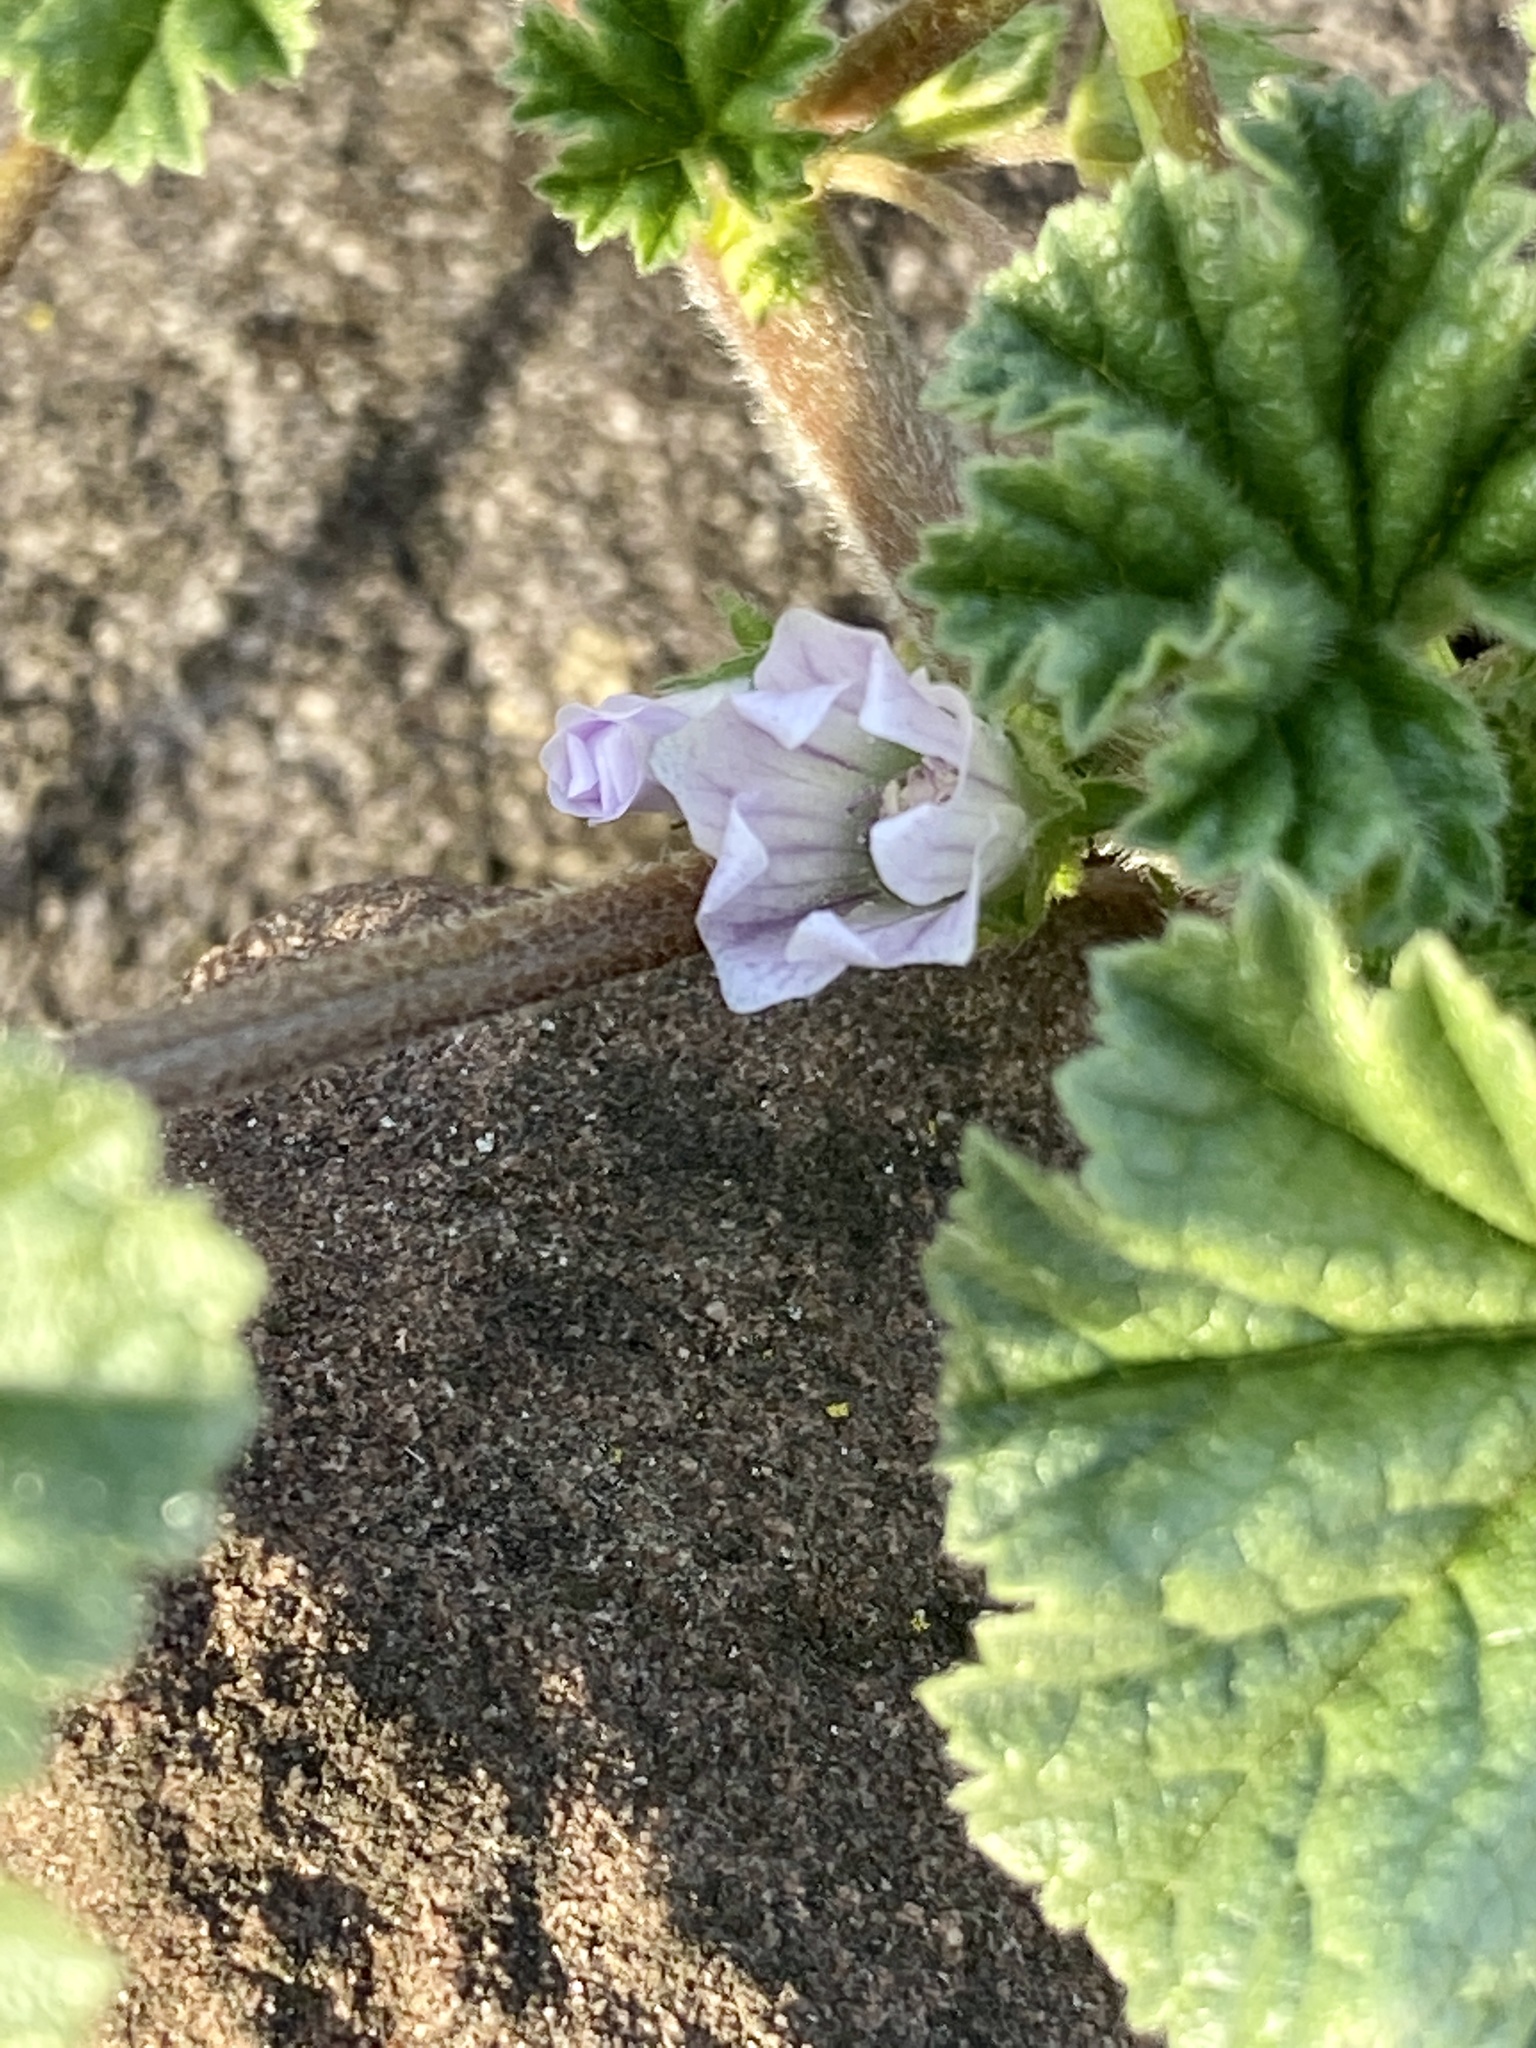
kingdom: Plantae
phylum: Tracheophyta
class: Magnoliopsida
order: Malvales
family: Malvaceae
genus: Malva
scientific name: Malva neglecta
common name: Common mallow
